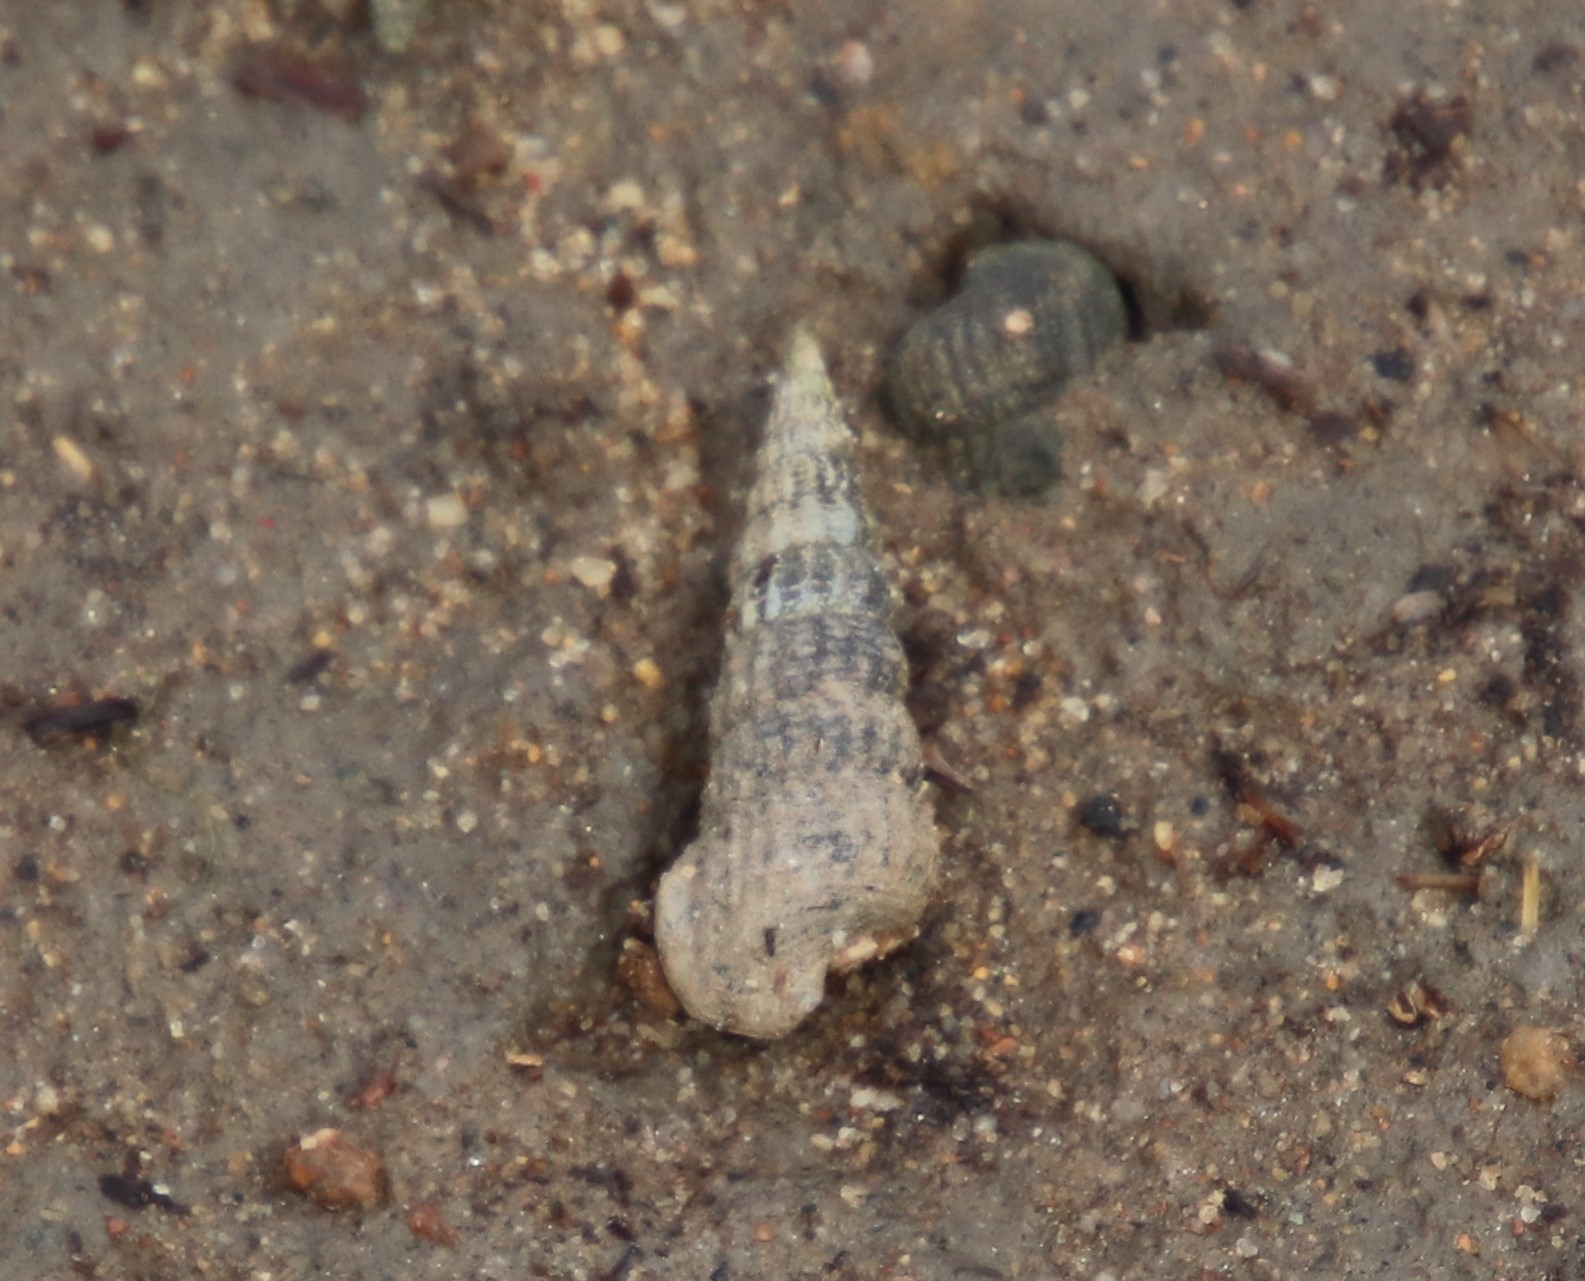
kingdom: Animalia
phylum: Mollusca
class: Gastropoda
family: Potamididae
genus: Cerithideopsis
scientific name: Cerithideopsis californica
